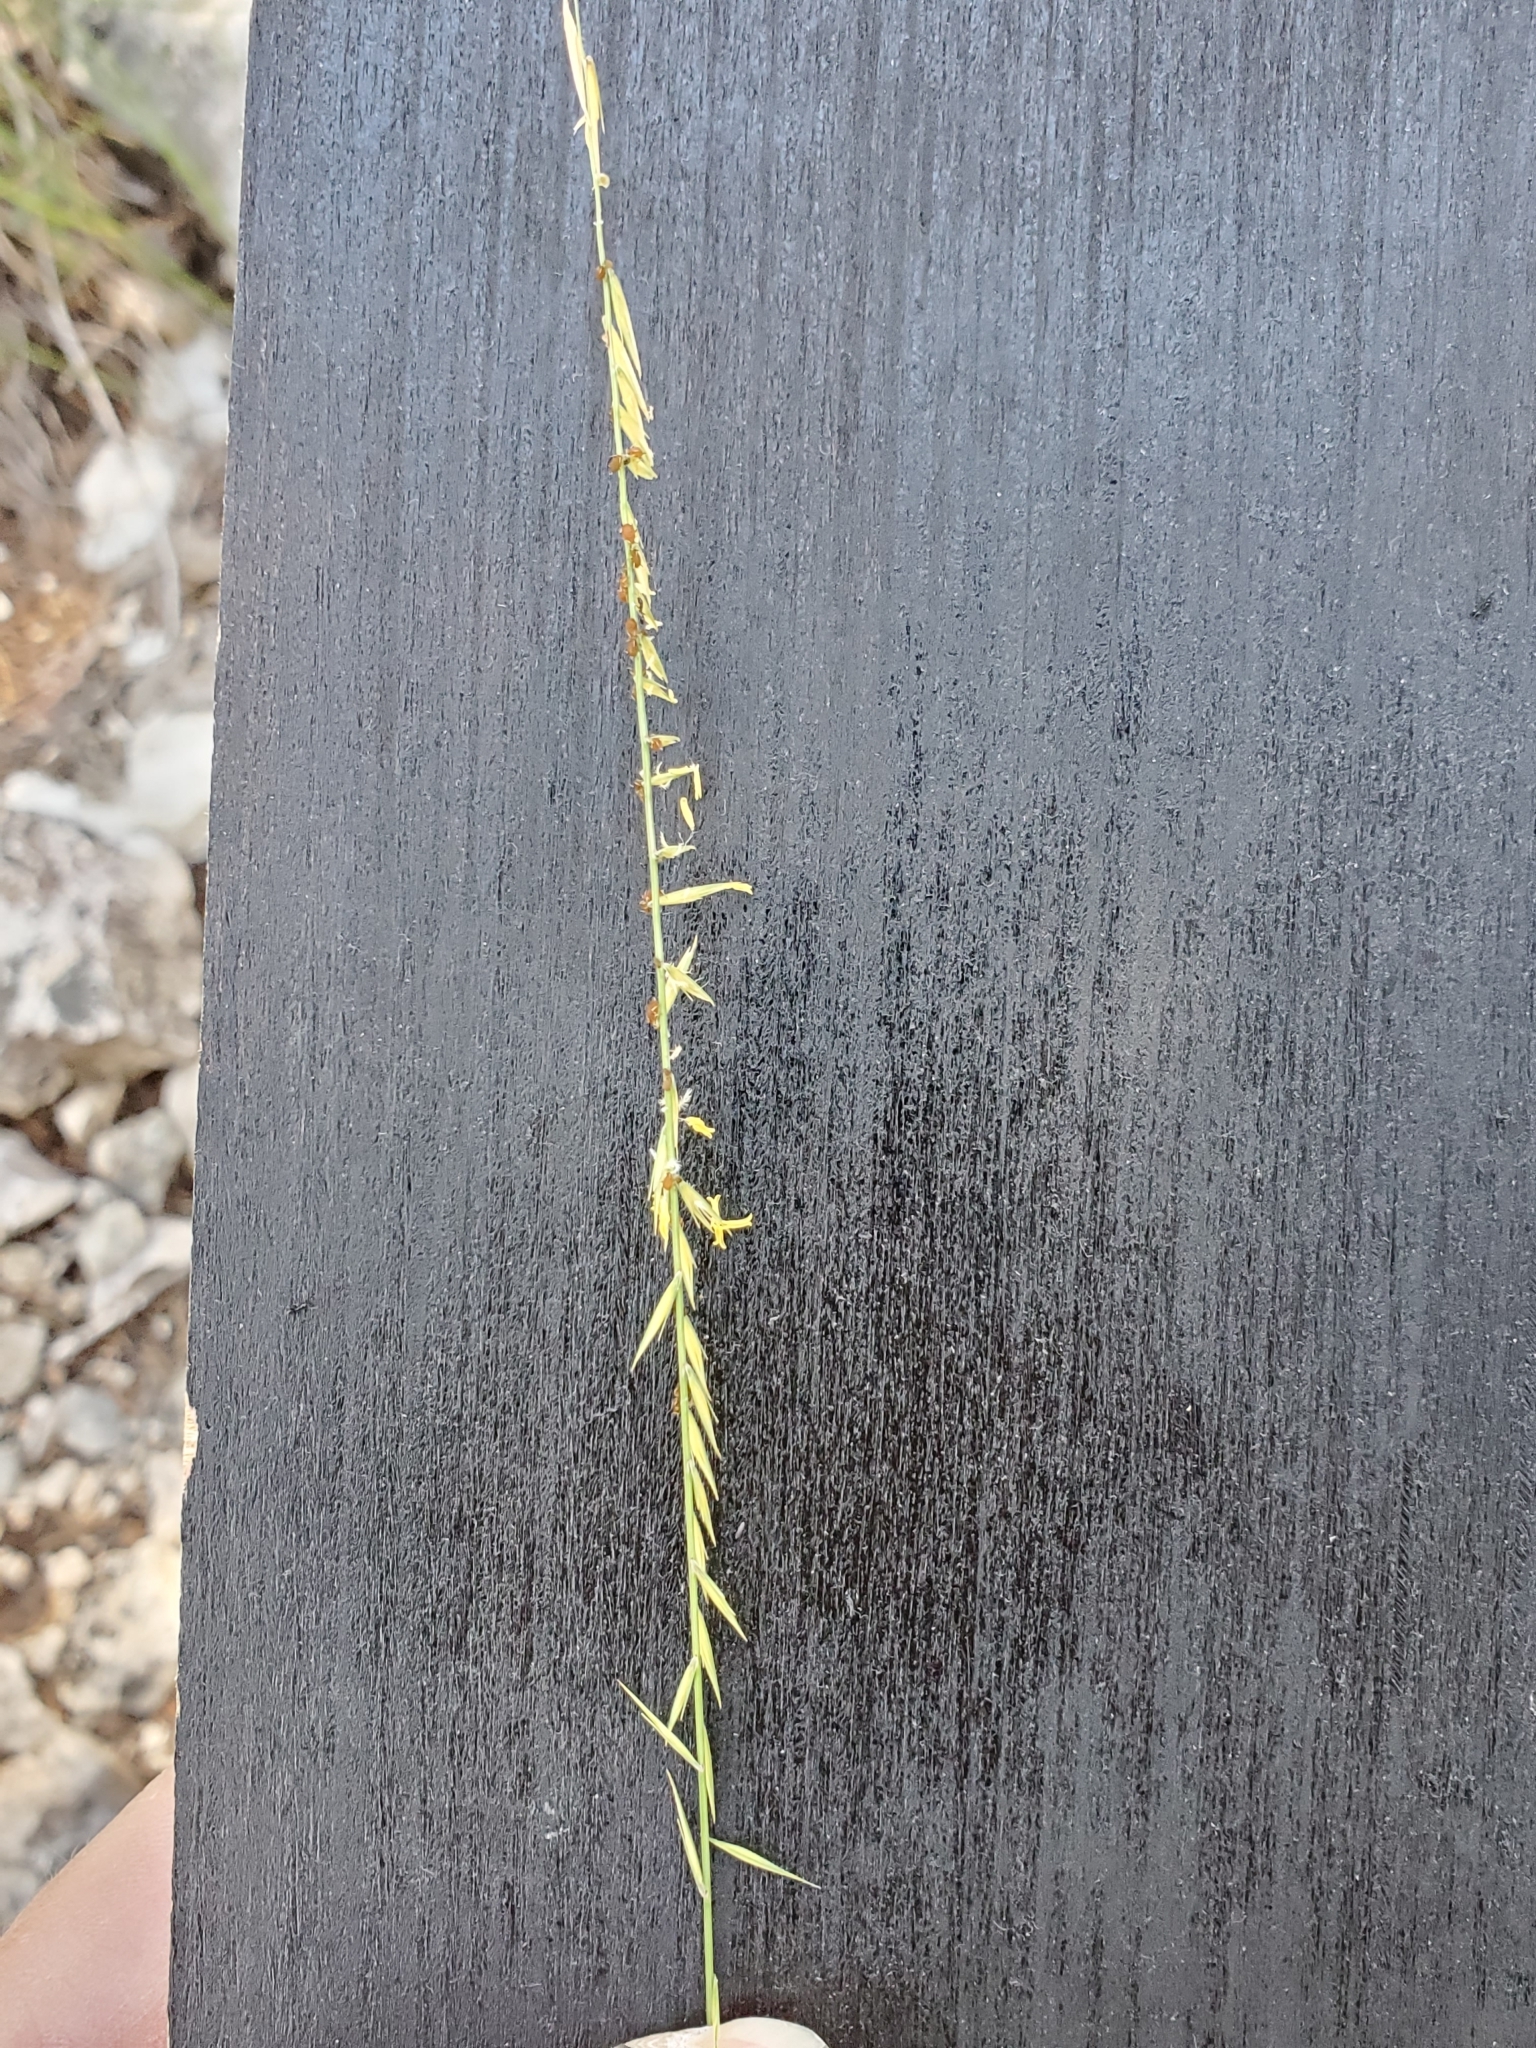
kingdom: Plantae
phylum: Tracheophyta
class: Liliopsida
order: Poales
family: Poaceae
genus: Bouteloua
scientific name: Bouteloua uniflora
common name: Neally's grama
